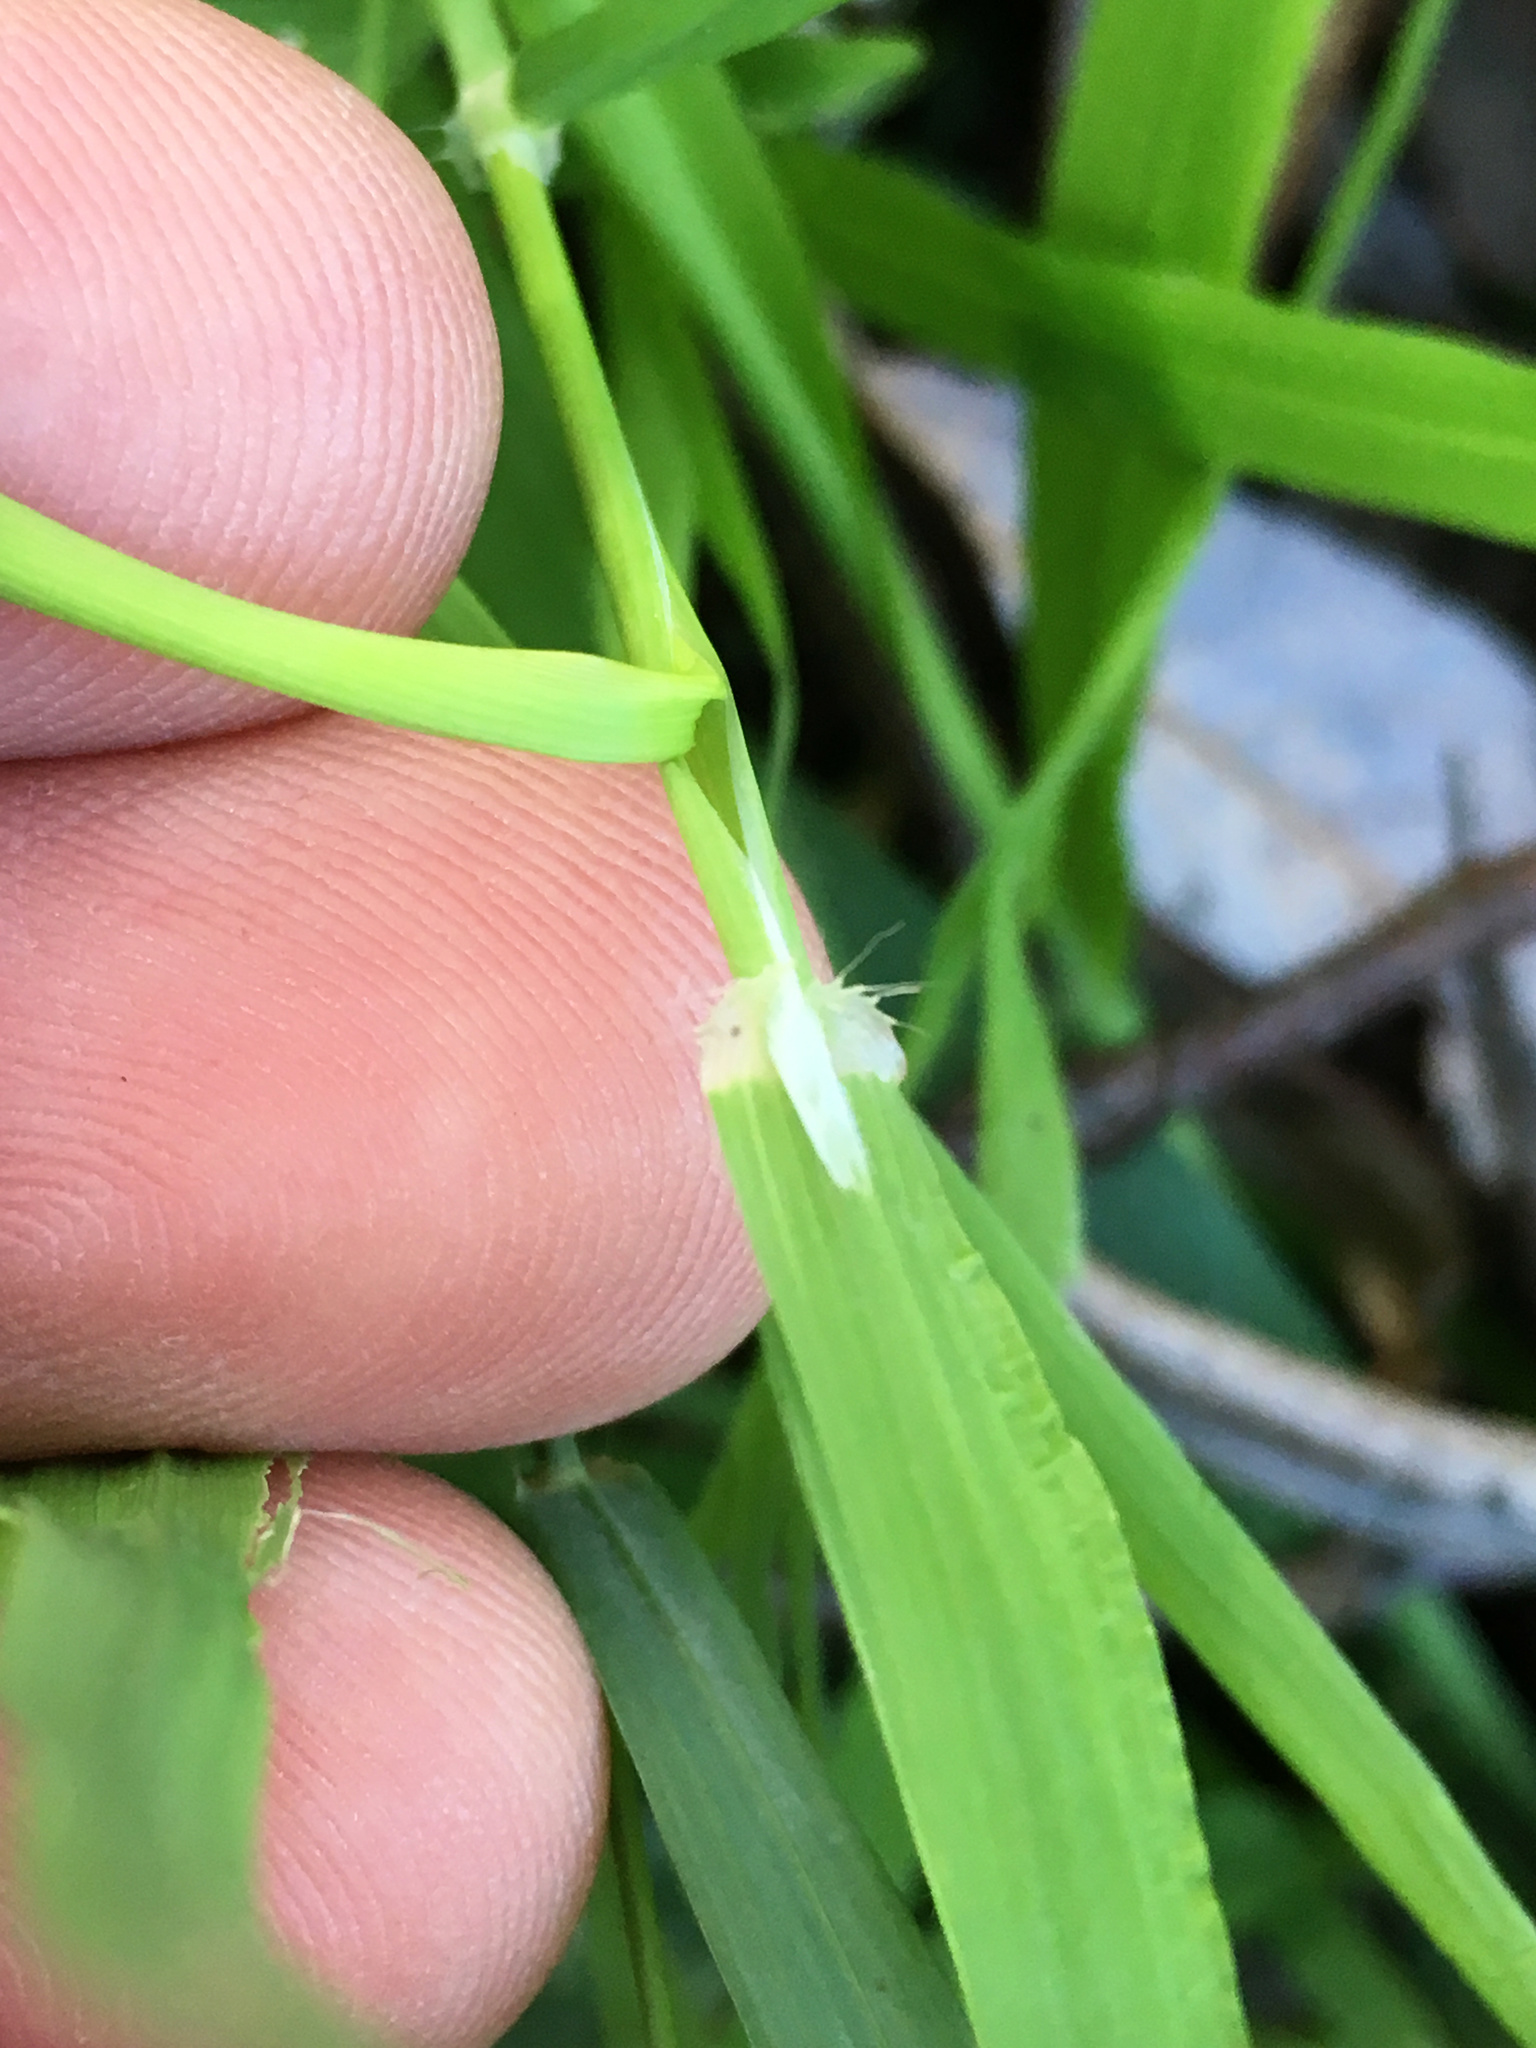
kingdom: Plantae
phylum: Tracheophyta
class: Liliopsida
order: Poales
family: Poaceae
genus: Ehrharta
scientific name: Ehrharta erecta
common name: Panic veldtgrass
